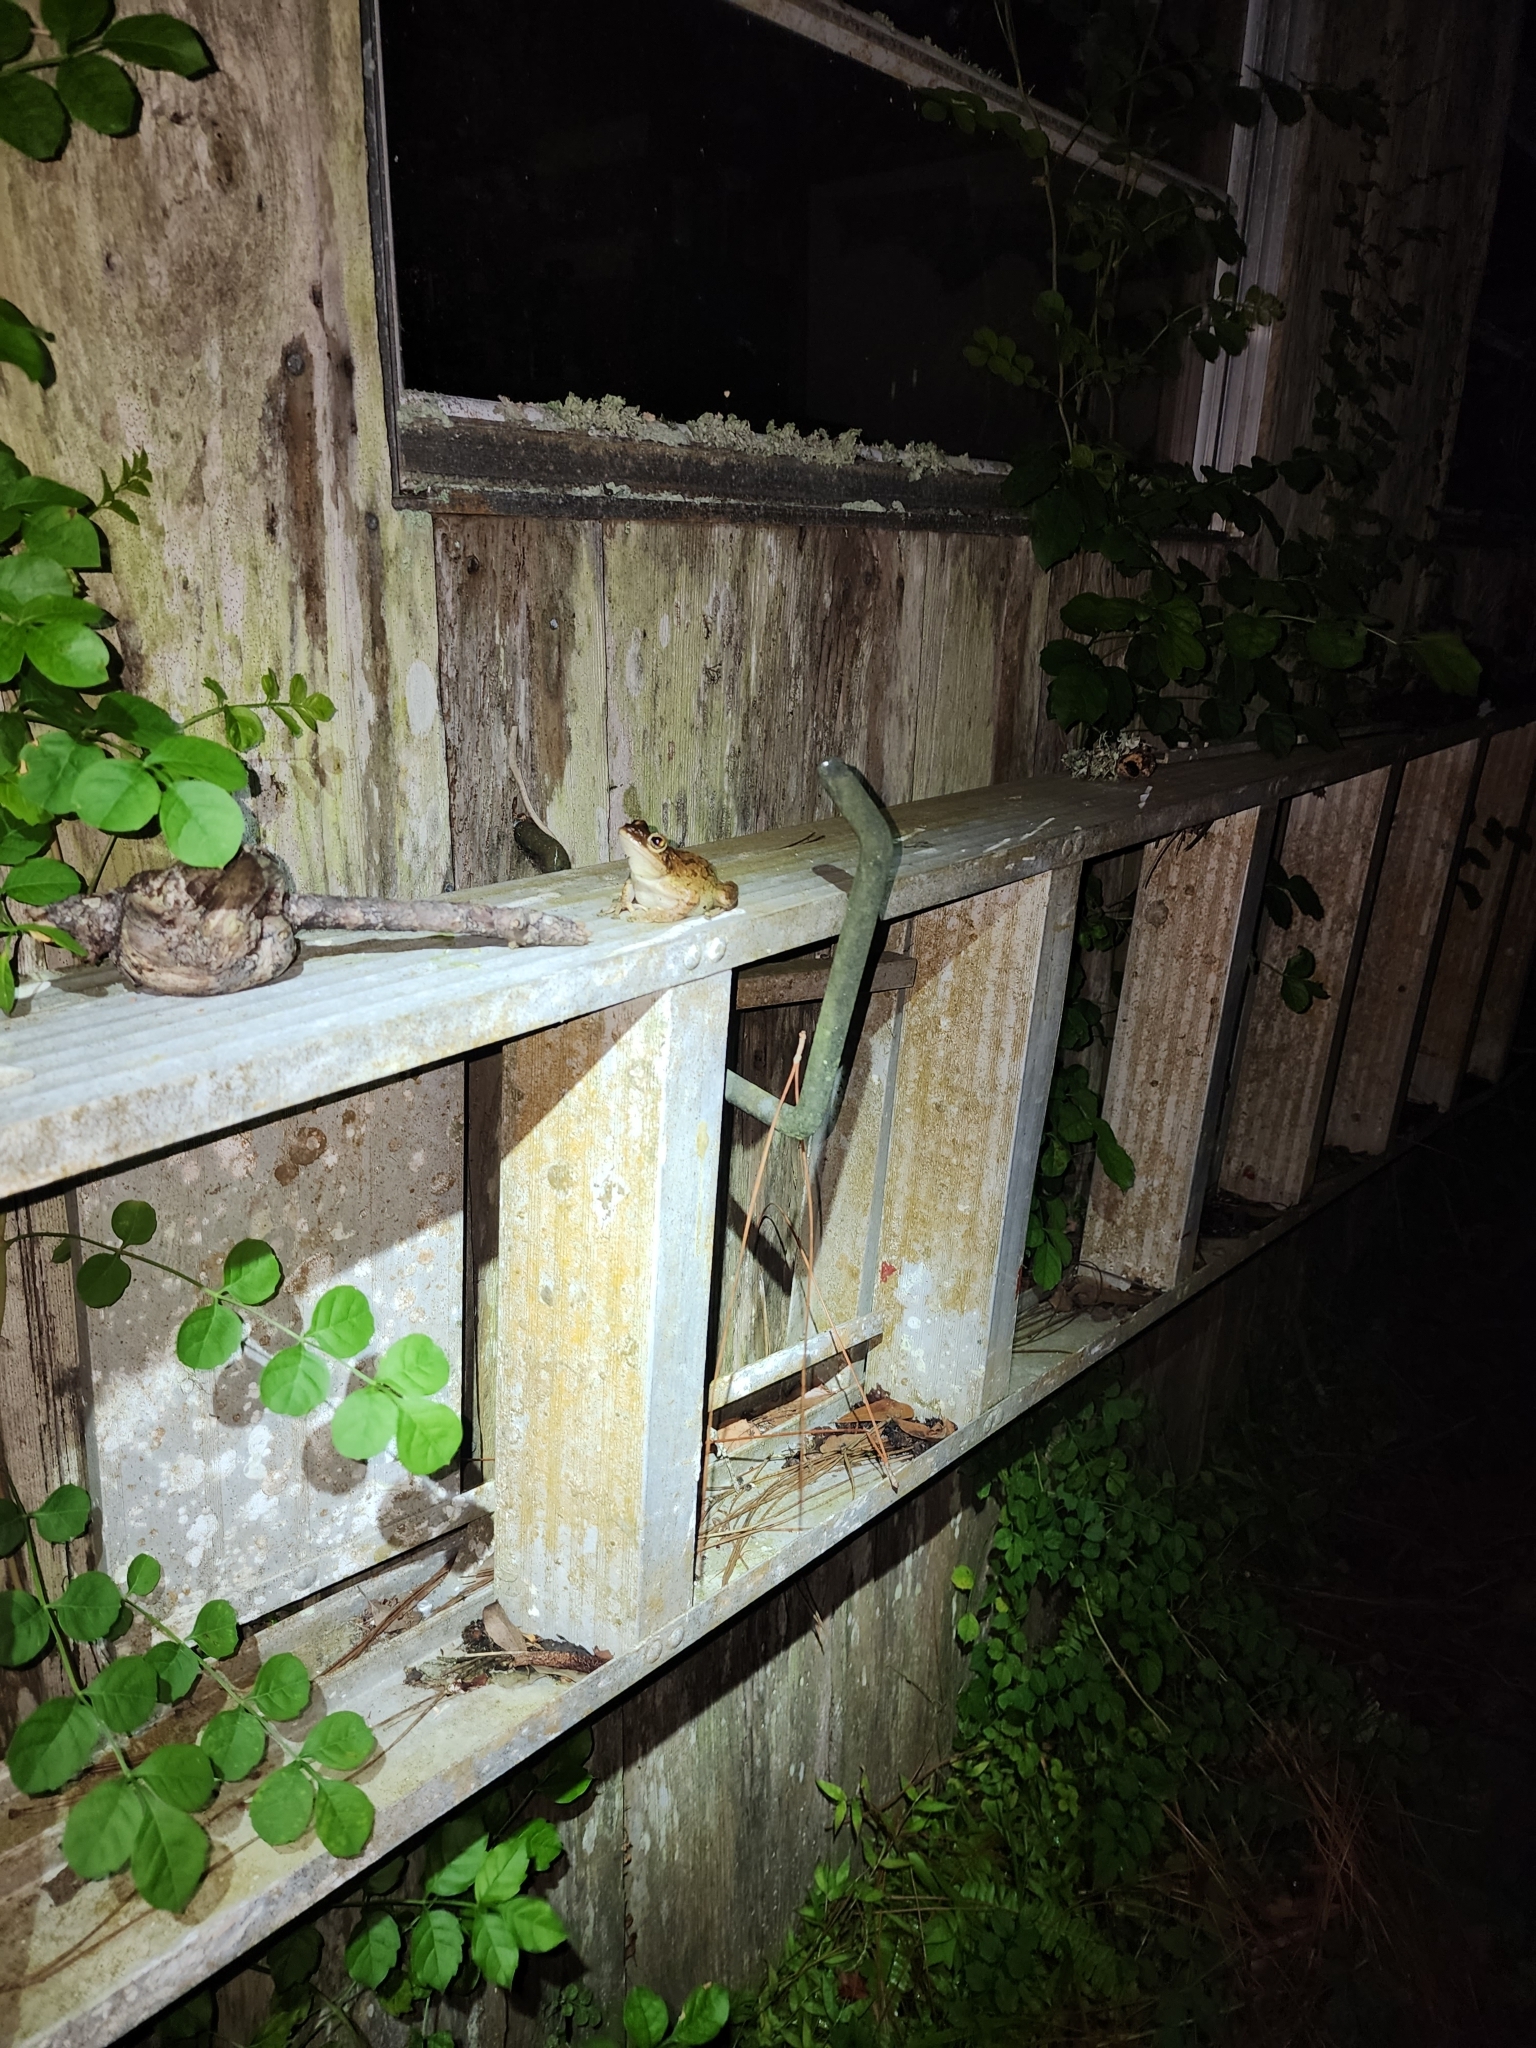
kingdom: Animalia
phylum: Chordata
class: Amphibia
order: Anura
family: Hylidae
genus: Osteopilus
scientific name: Osteopilus septentrionalis
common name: Cuban treefrog
